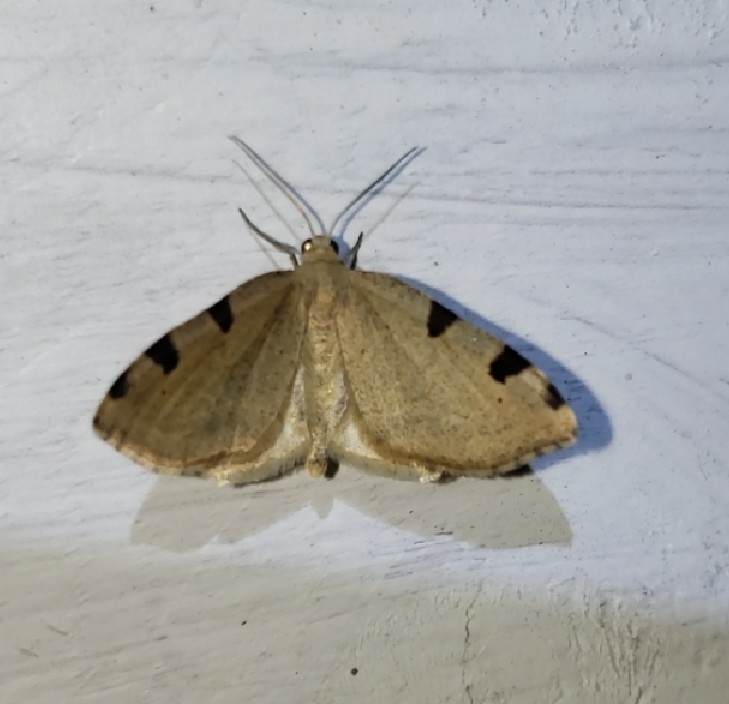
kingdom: Animalia
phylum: Arthropoda
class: Insecta
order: Lepidoptera
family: Geometridae
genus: Heterophleps
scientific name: Heterophleps triguttaria
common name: Three-spotted fillip
